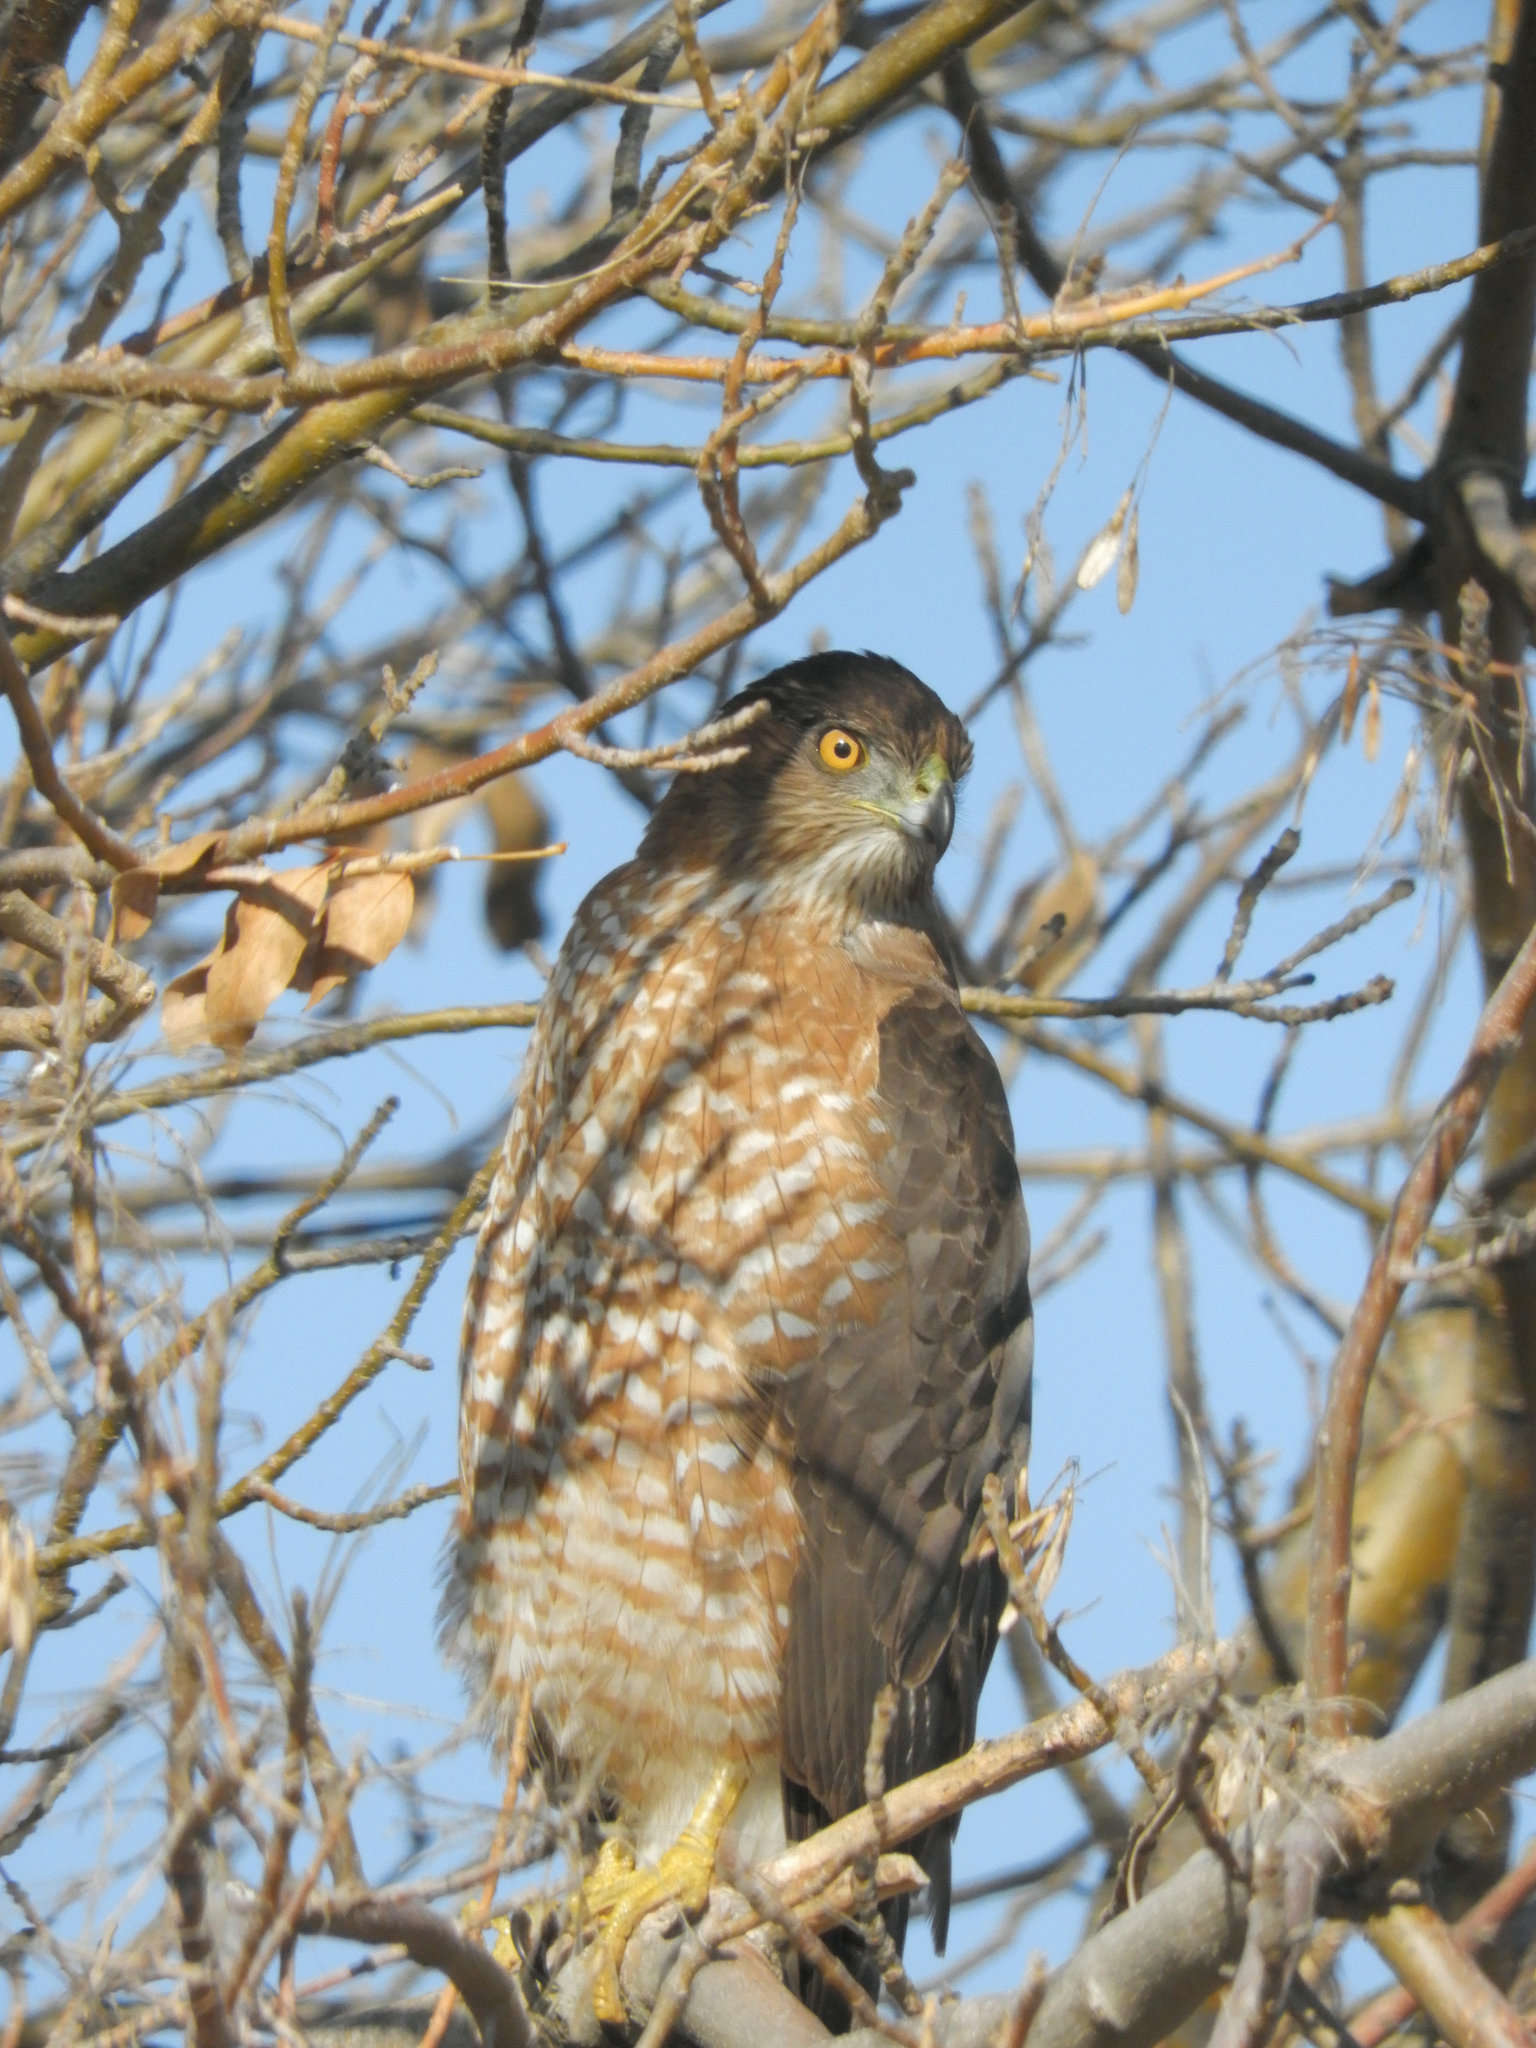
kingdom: Animalia
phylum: Chordata
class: Aves
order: Accipitriformes
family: Accipitridae
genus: Accipiter
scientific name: Accipiter cooperii
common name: Cooper's hawk
